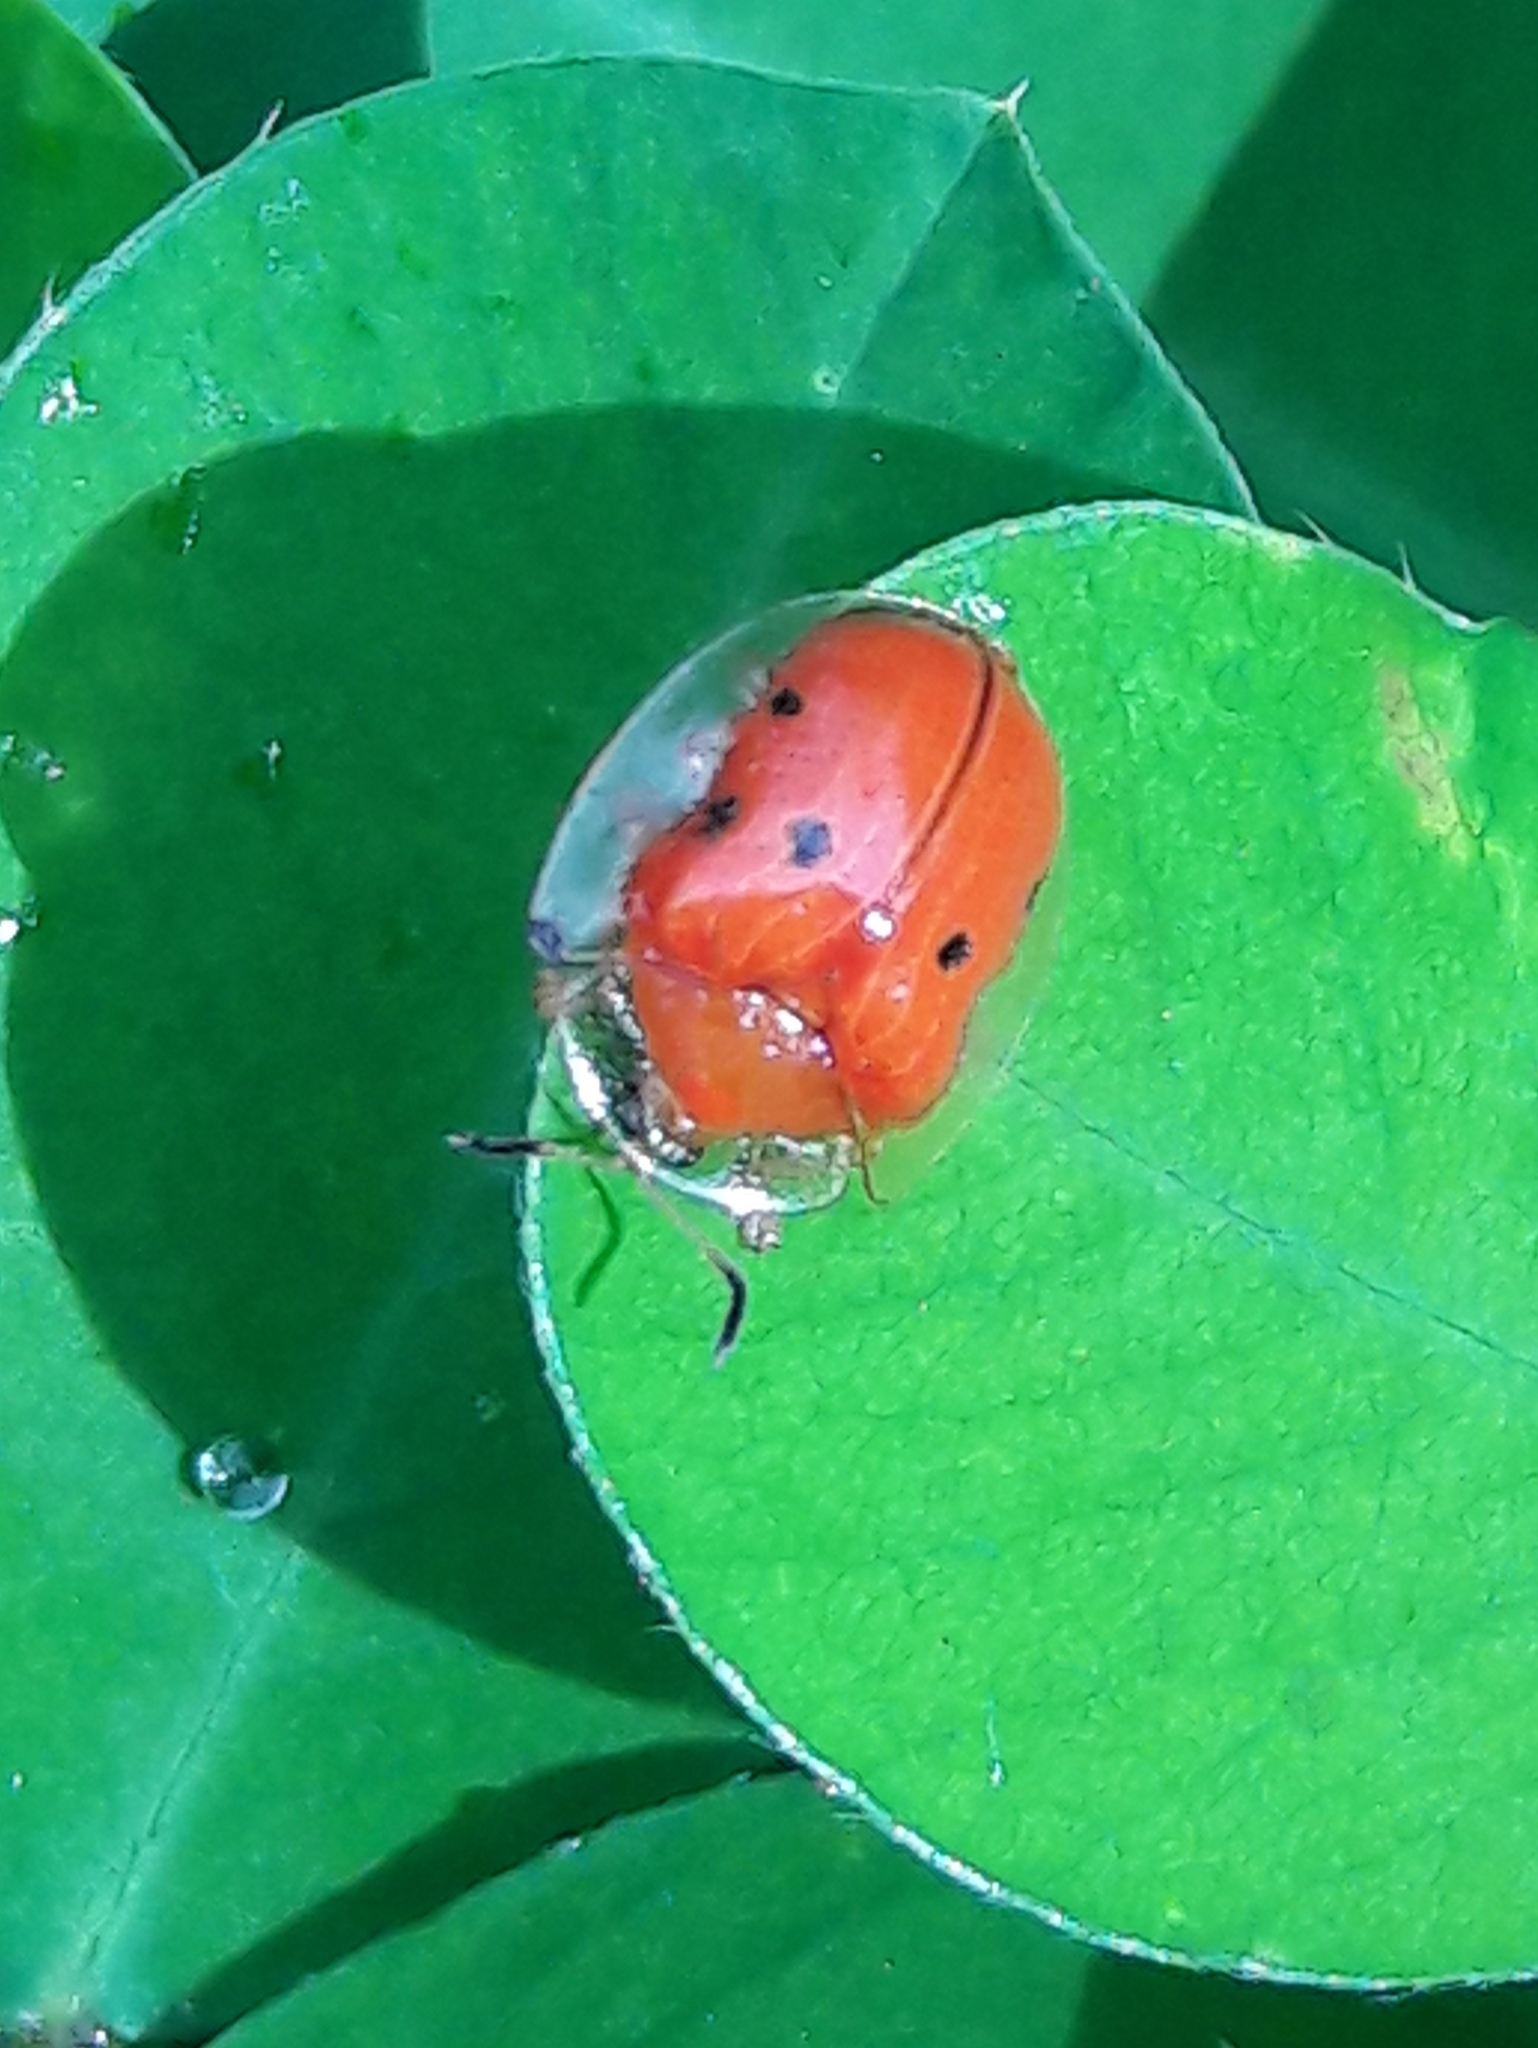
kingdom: Animalia
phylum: Arthropoda
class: Insecta
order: Coleoptera
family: Chrysomelidae
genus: Charidotella
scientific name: Charidotella sexpunctata
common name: Golden tortoise beetle
